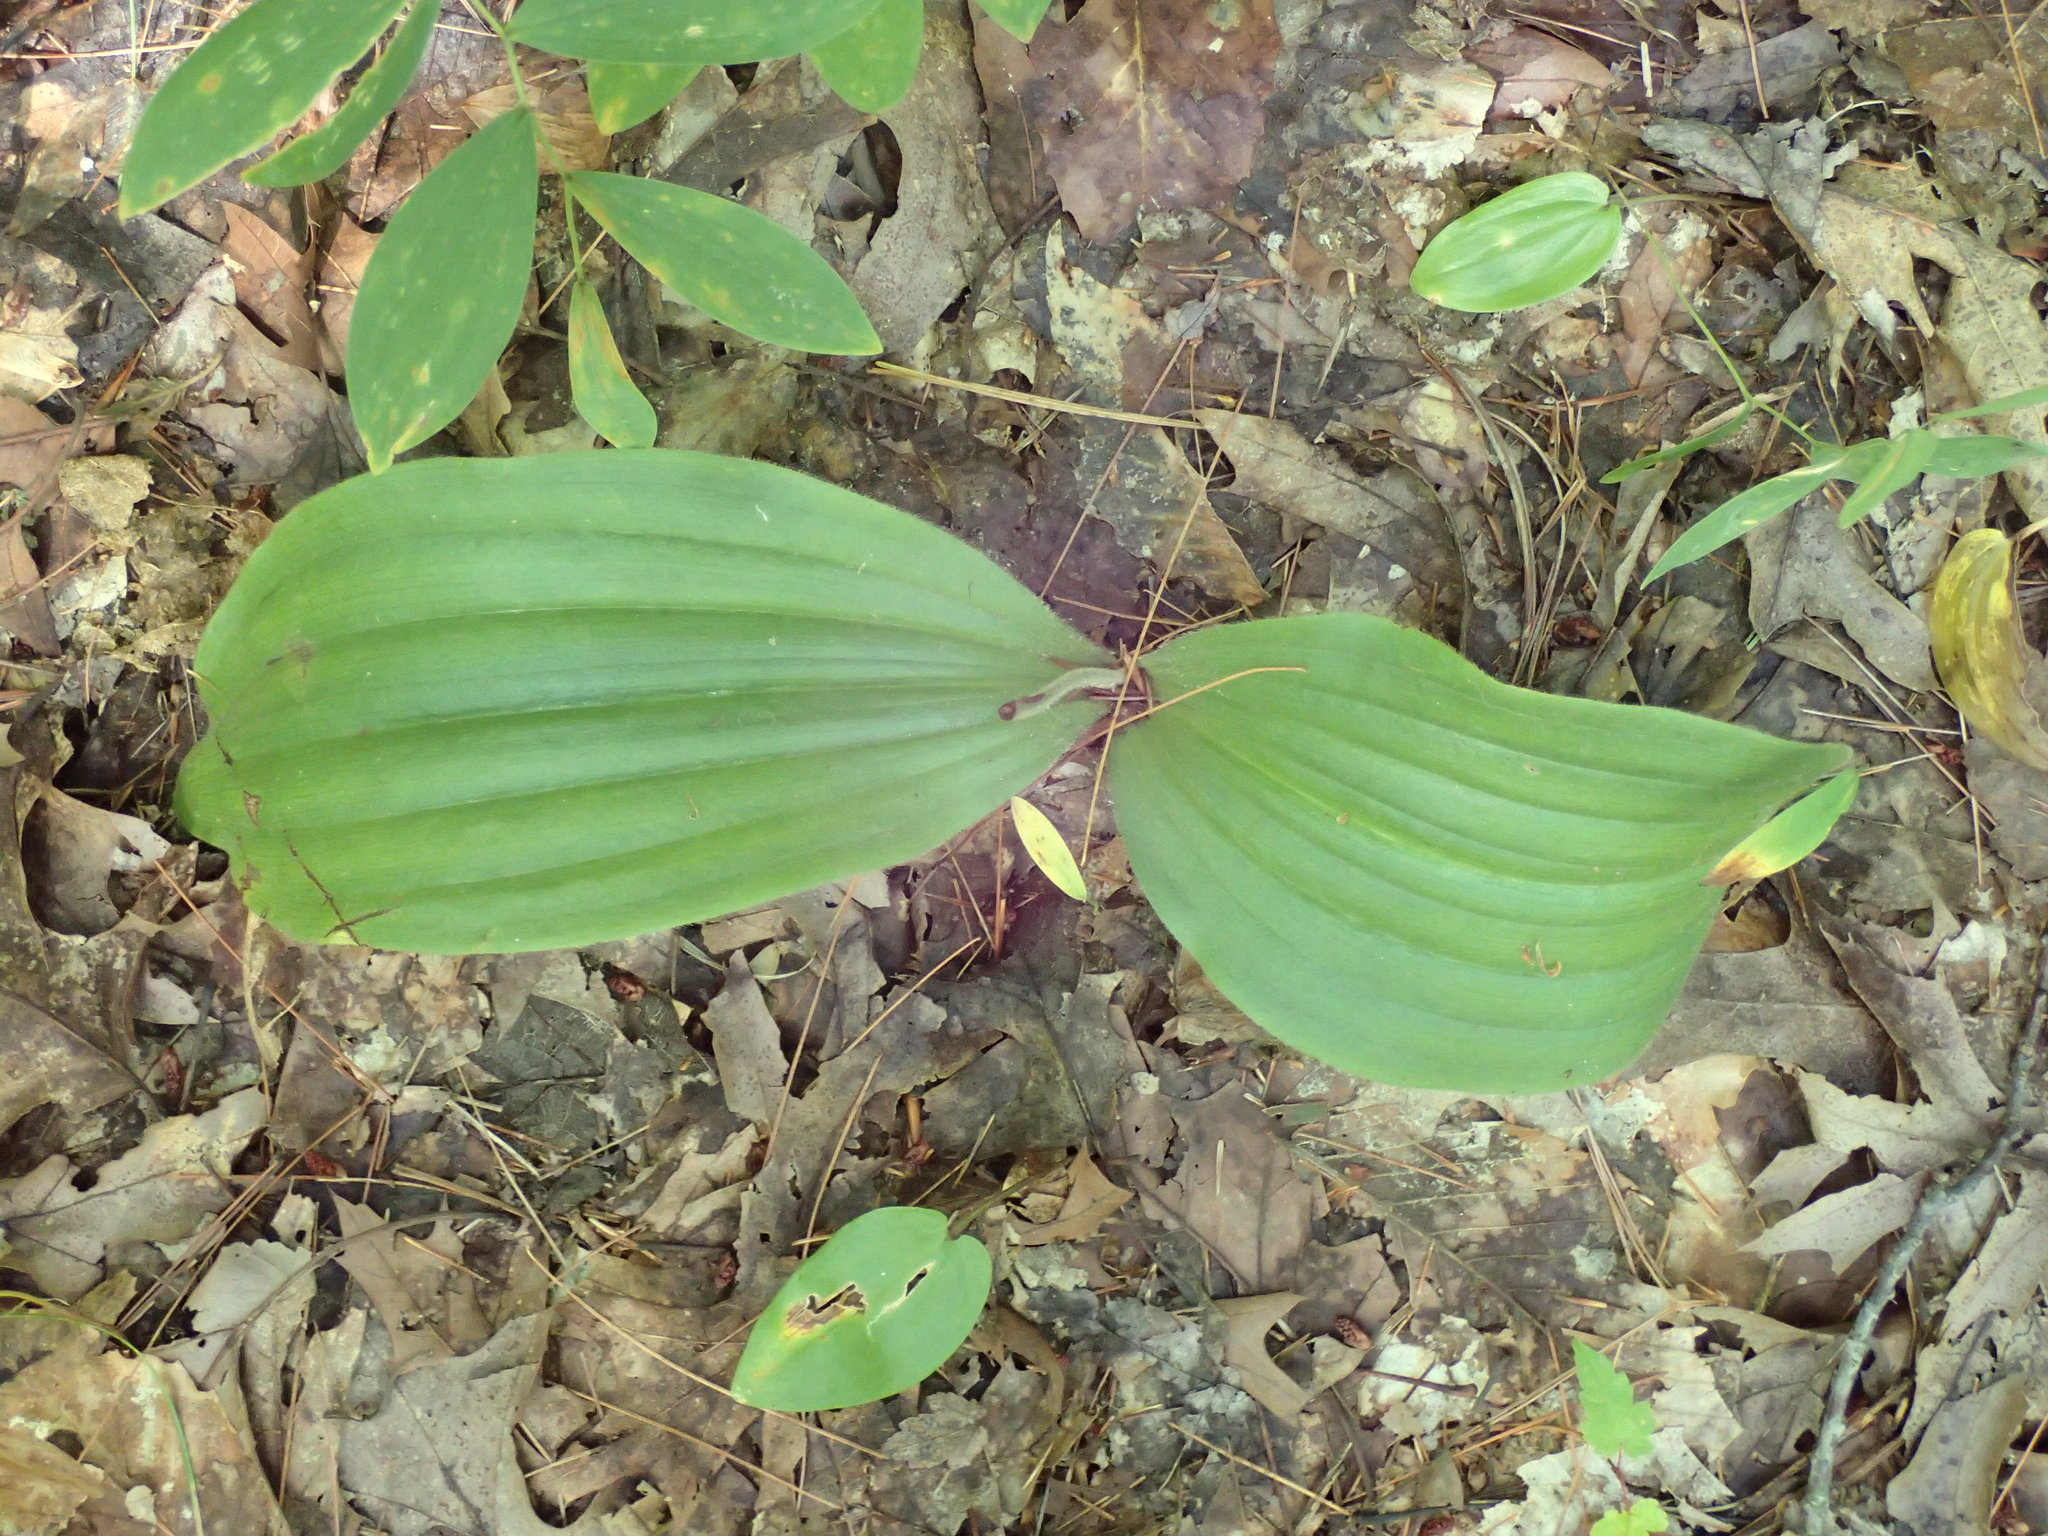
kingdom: Plantae
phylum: Tracheophyta
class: Liliopsida
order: Asparagales
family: Orchidaceae
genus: Cypripedium
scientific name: Cypripedium acaule
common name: Pink lady's-slipper
